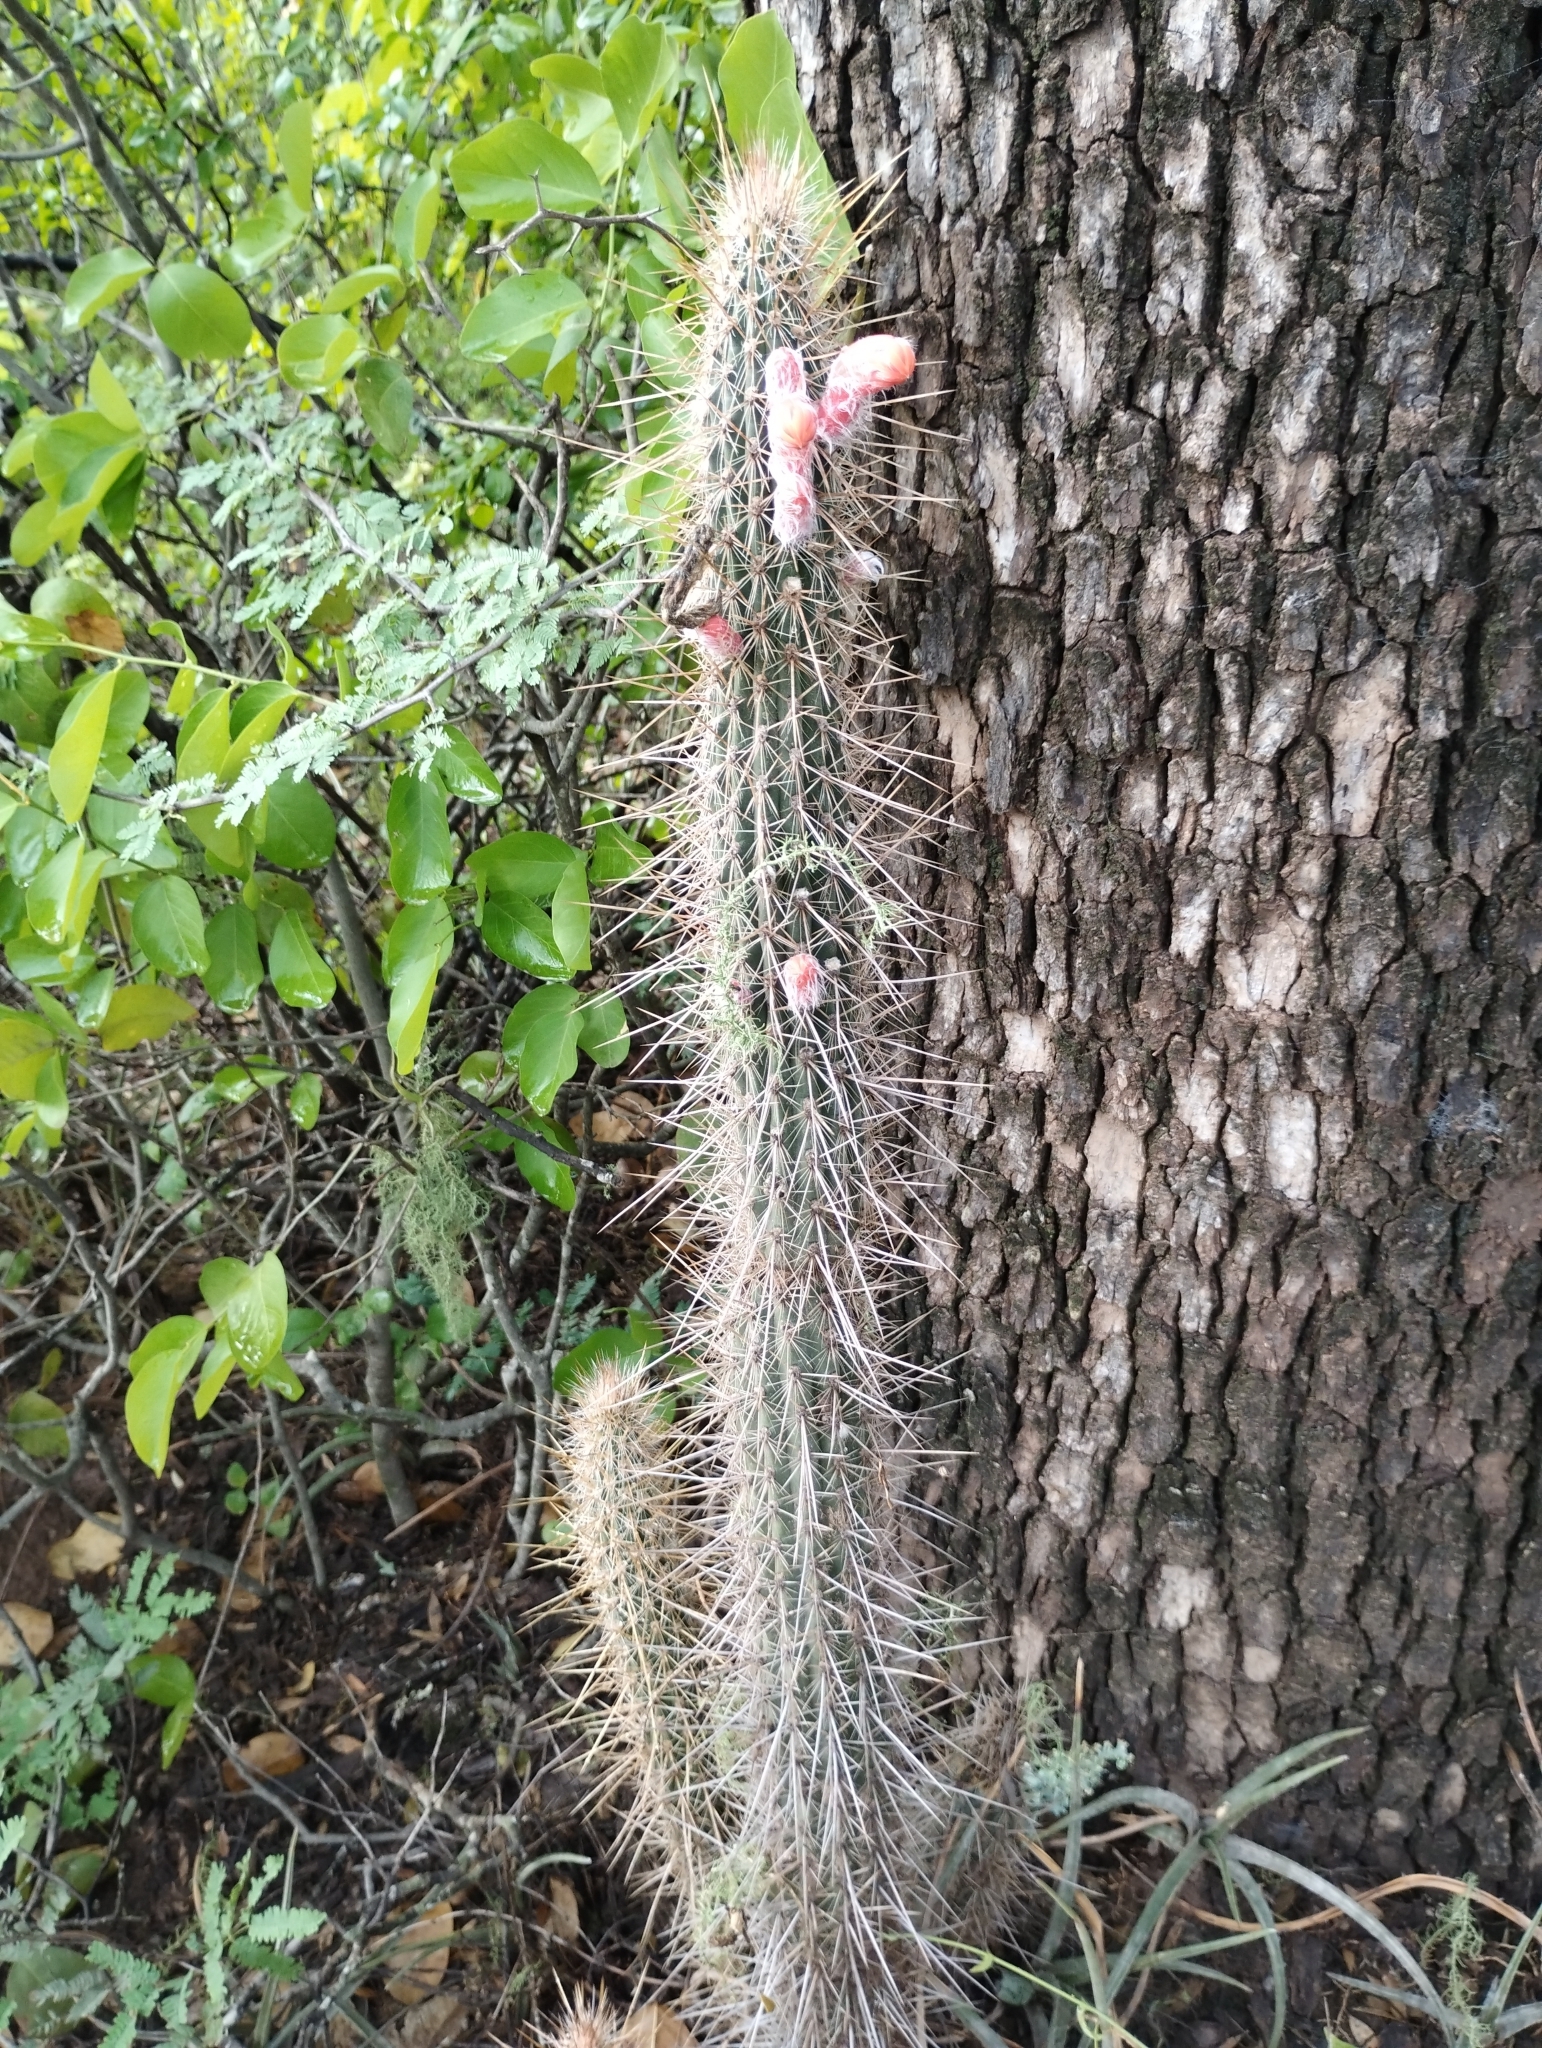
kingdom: Plantae
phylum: Tracheophyta
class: Magnoliopsida
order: Caryophyllales
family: Cactaceae
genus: Cleistocactus
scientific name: Cleistocactus baumannii
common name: Scarlet-bugler
